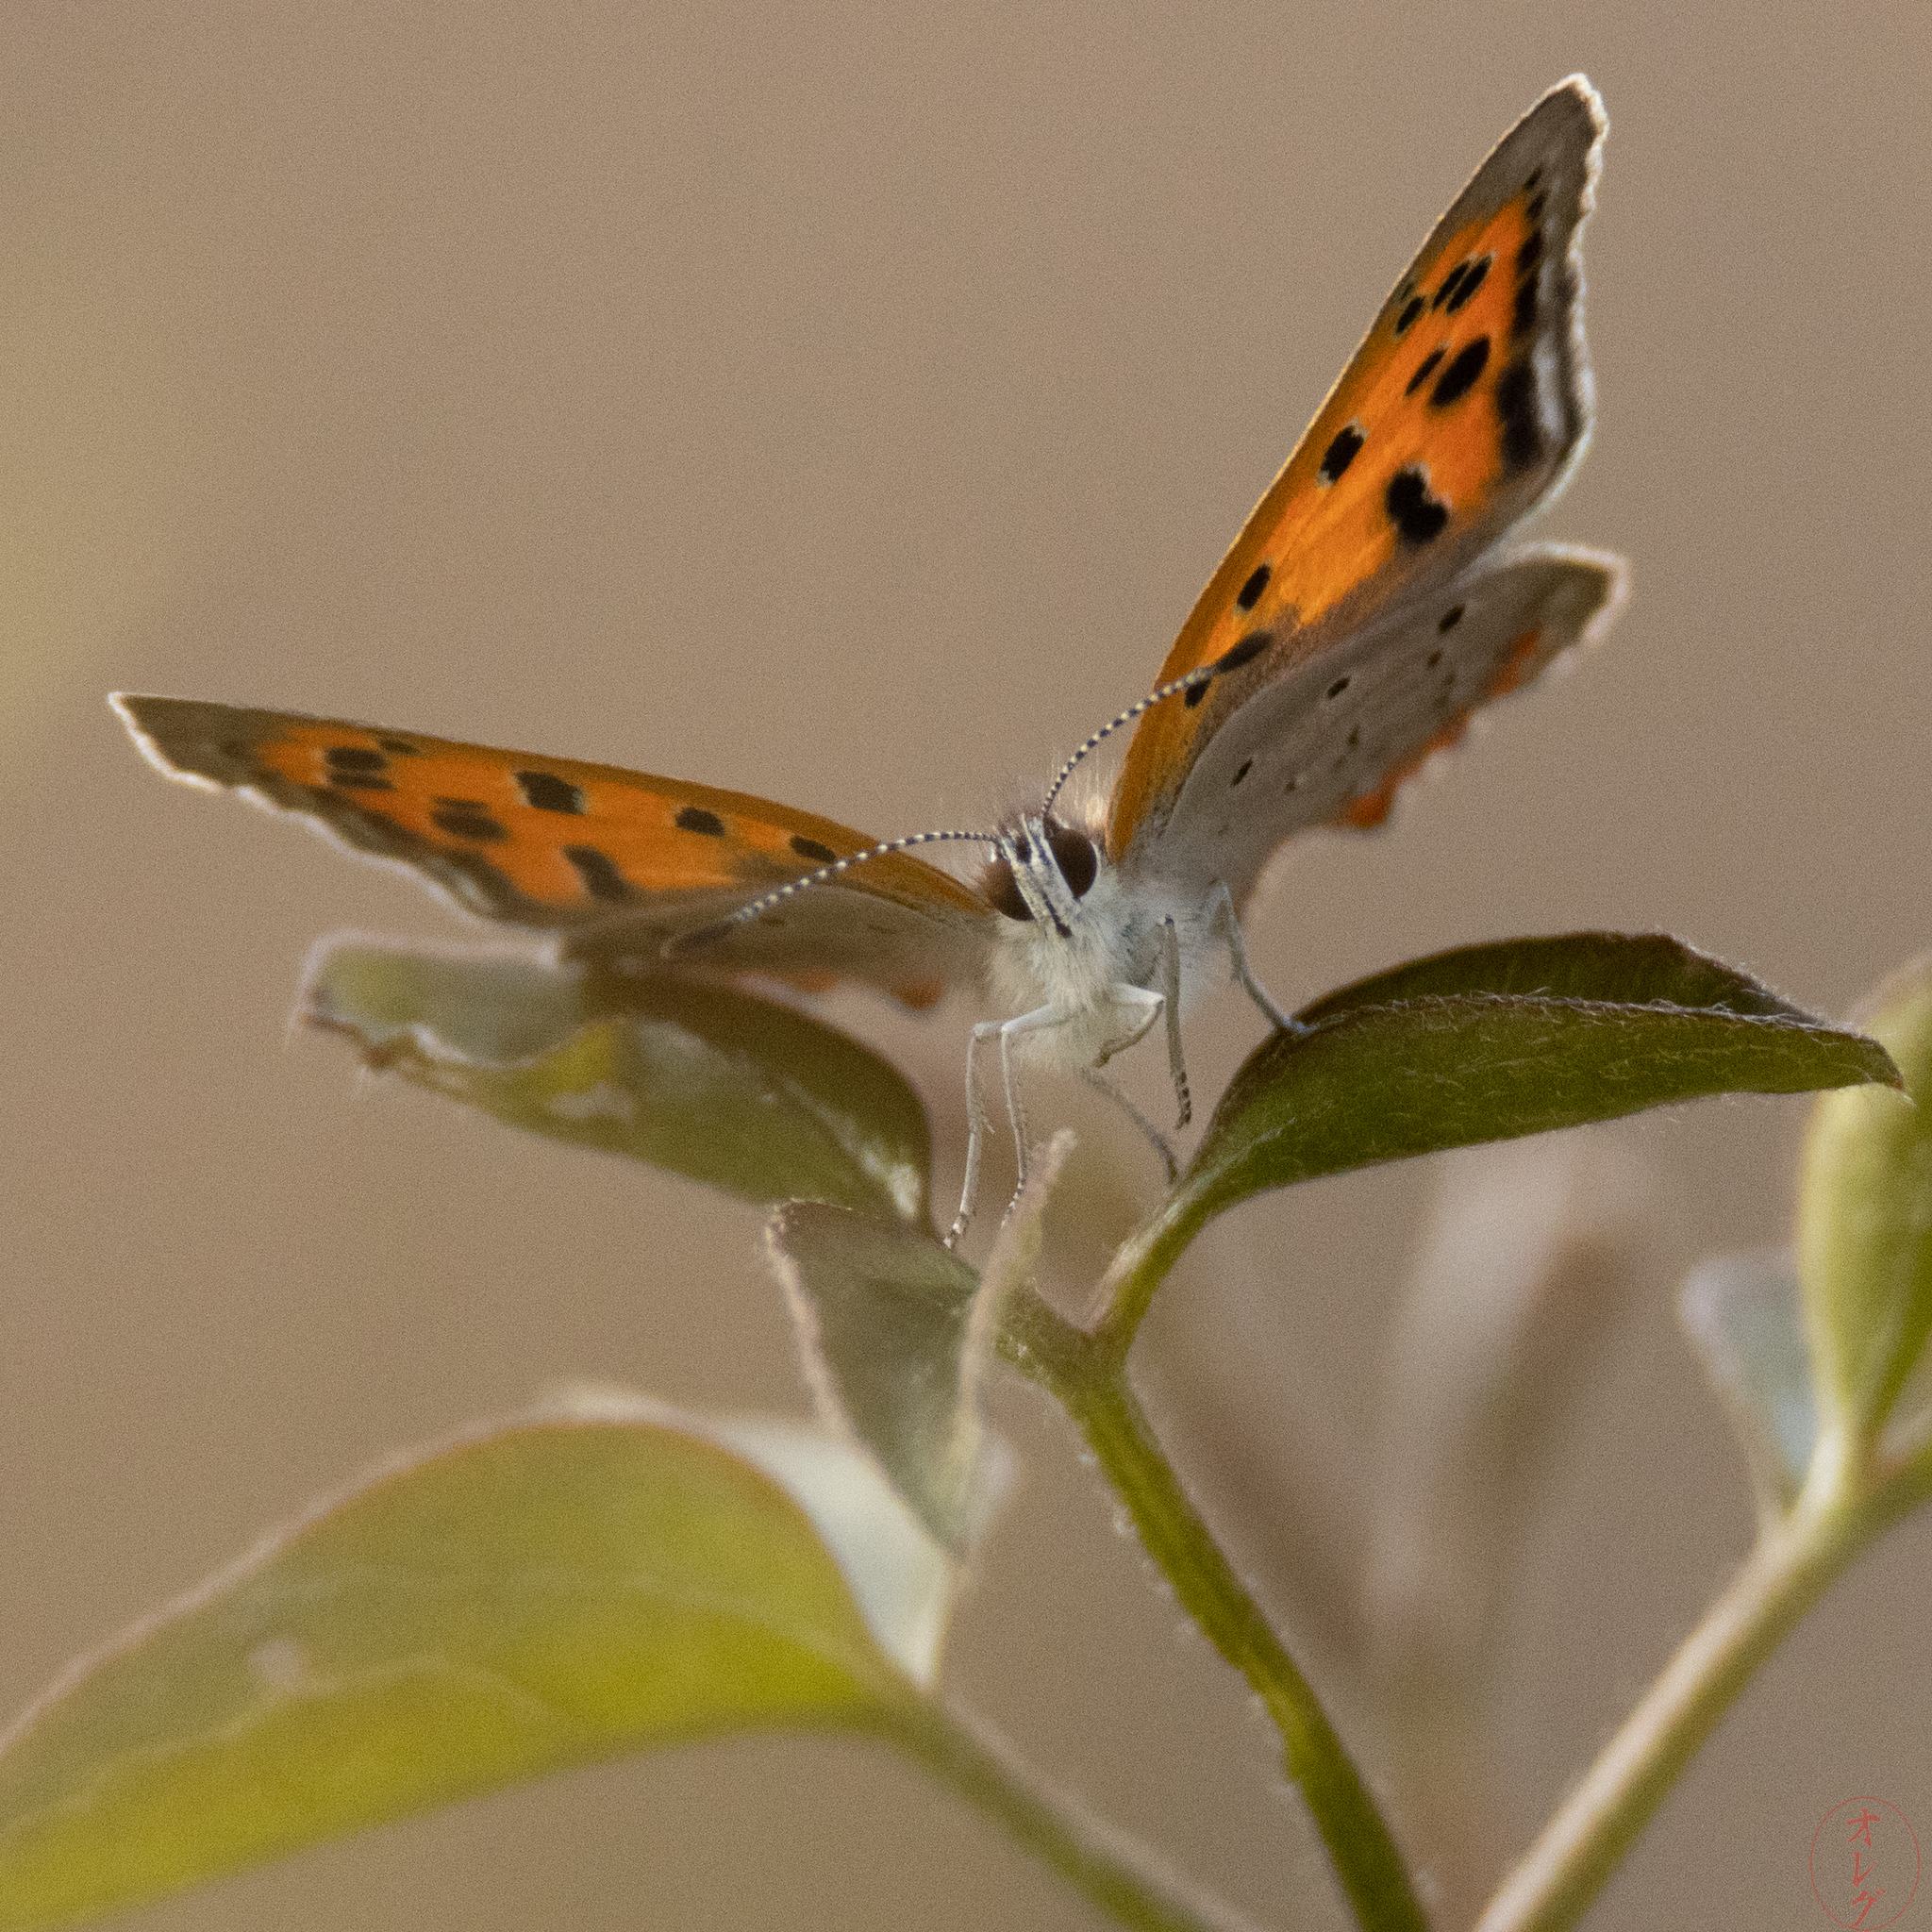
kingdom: Animalia
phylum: Arthropoda
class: Insecta
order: Lepidoptera
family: Lycaenidae
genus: Lycaena
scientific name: Lycaena phlaeas
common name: Small copper
